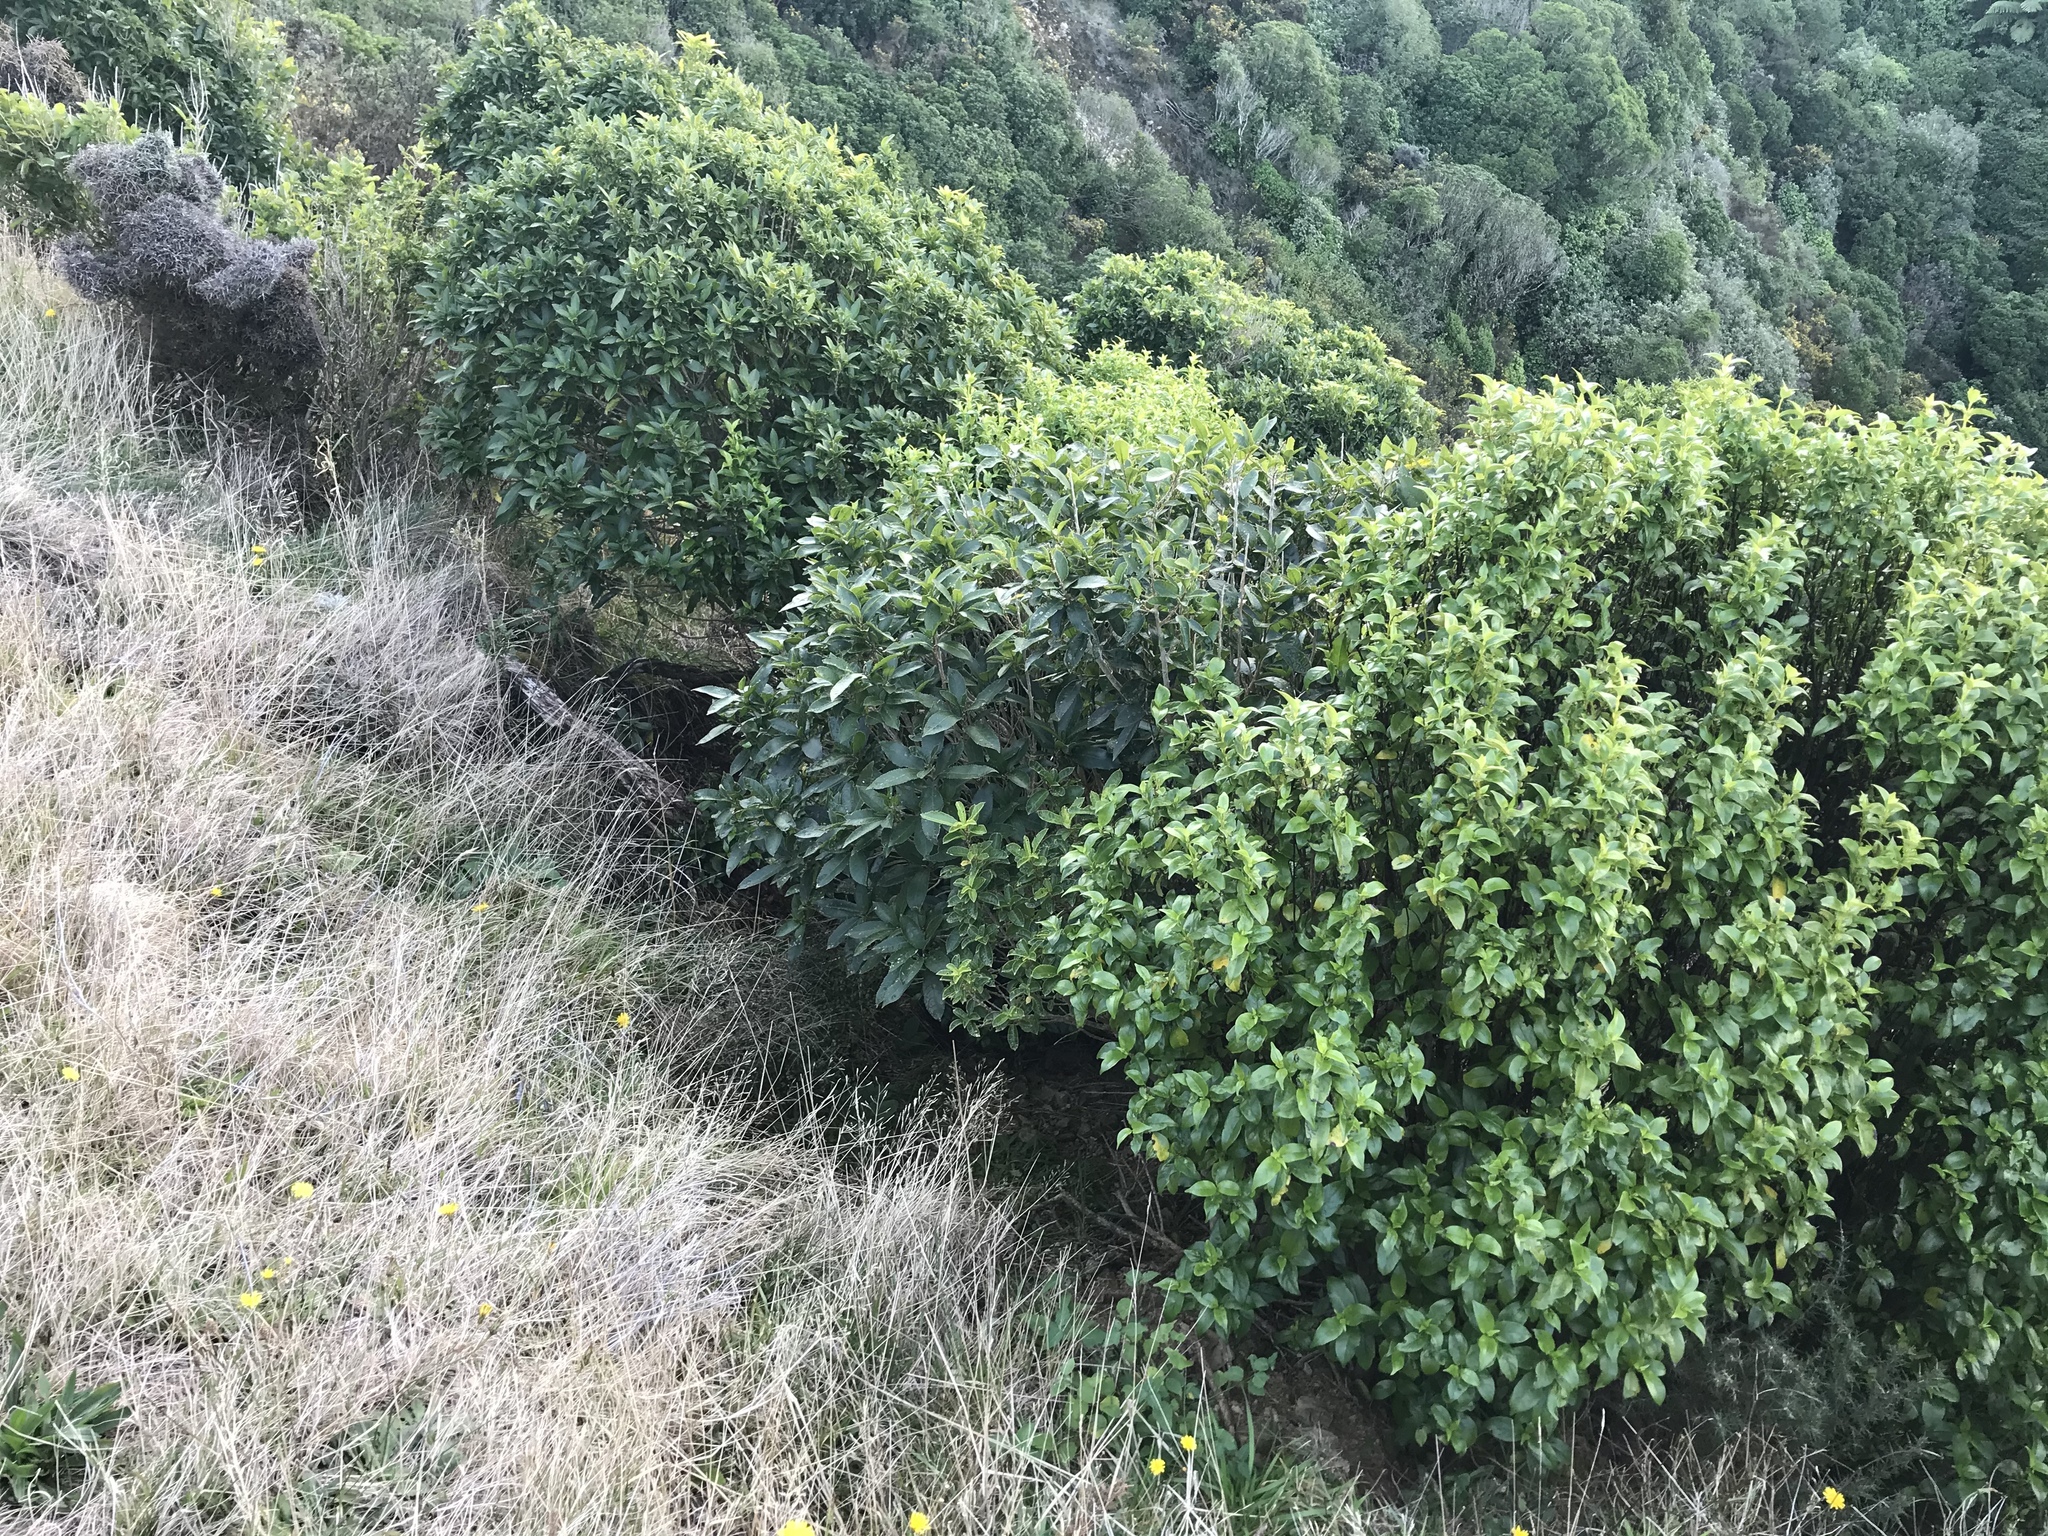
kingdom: Plantae
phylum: Tracheophyta
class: Magnoliopsida
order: Malpighiales
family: Violaceae
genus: Melicytus
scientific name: Melicytus ramiflorus
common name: Mahoe
